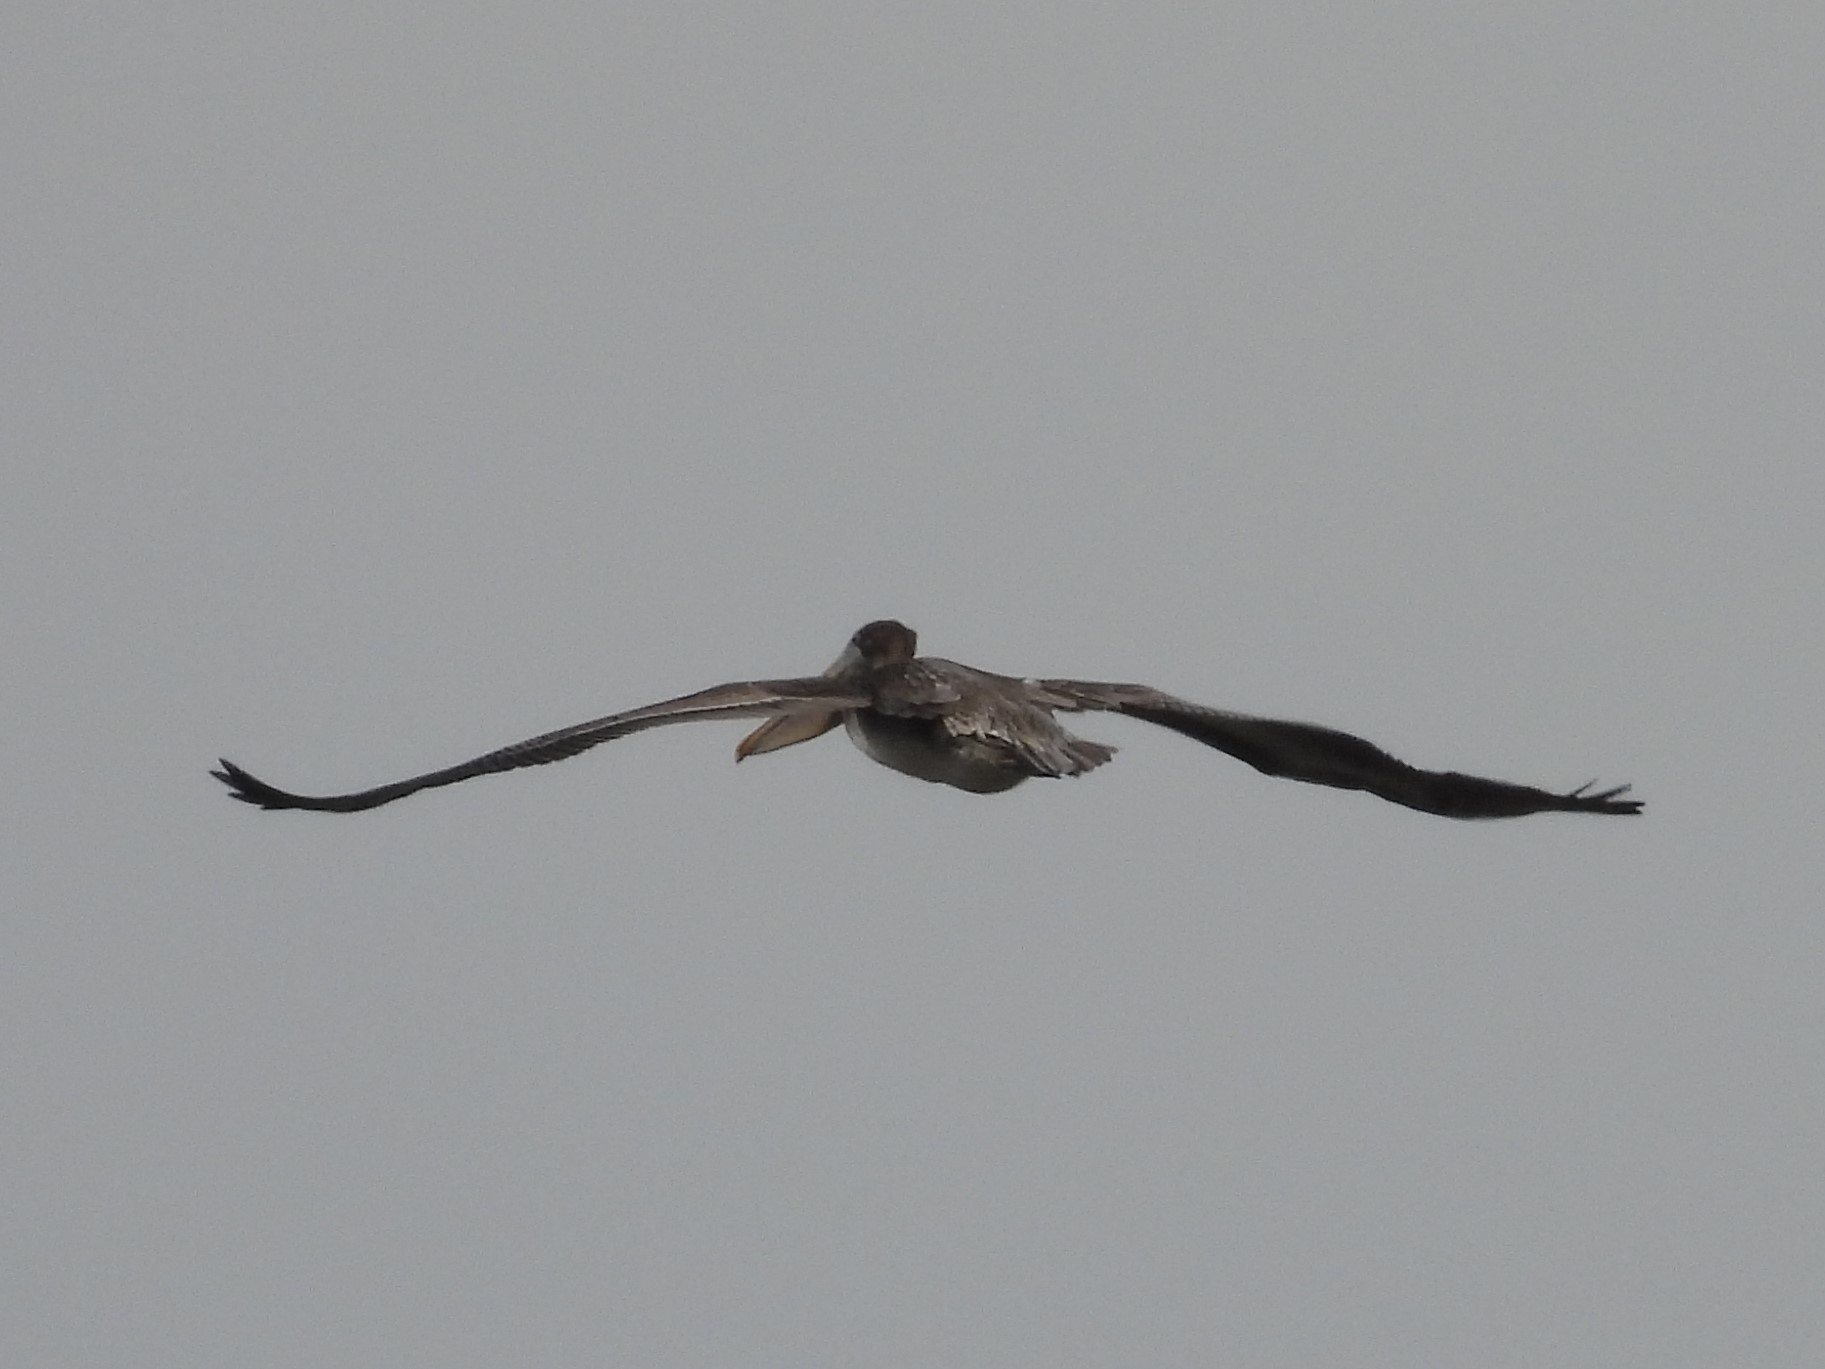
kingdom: Animalia
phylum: Chordata
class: Aves
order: Pelecaniformes
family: Pelecanidae
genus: Pelecanus
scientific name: Pelecanus occidentalis
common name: Brown pelican
